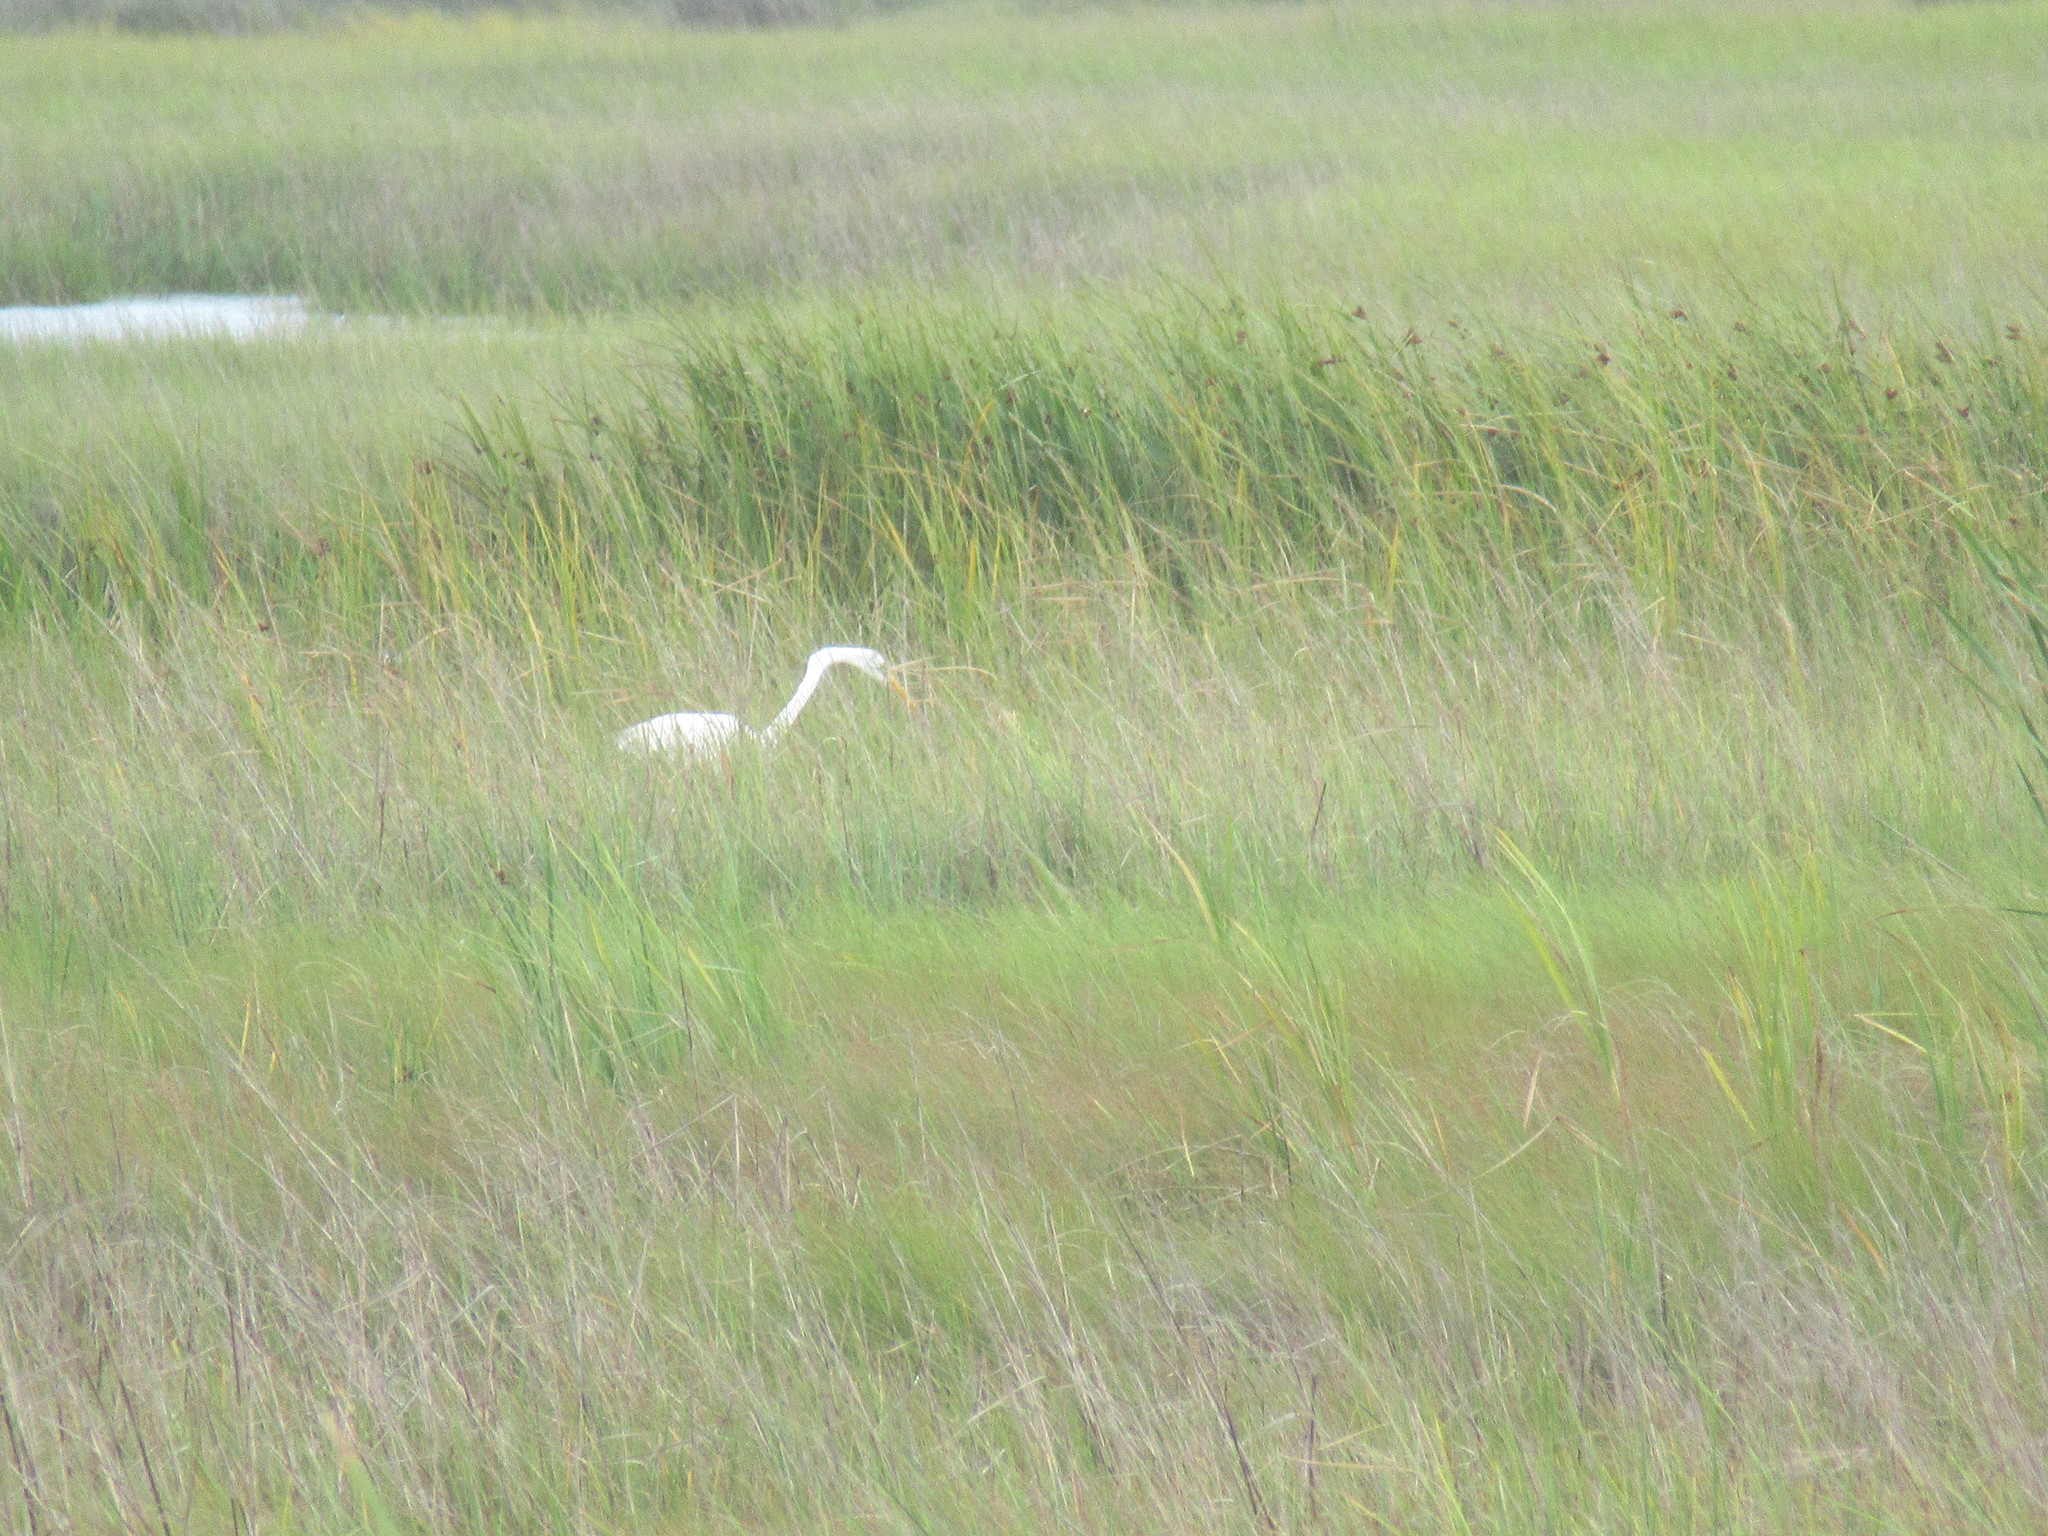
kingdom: Animalia
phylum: Chordata
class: Aves
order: Pelecaniformes
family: Ardeidae
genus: Ardea
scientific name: Ardea alba
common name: Great egret
